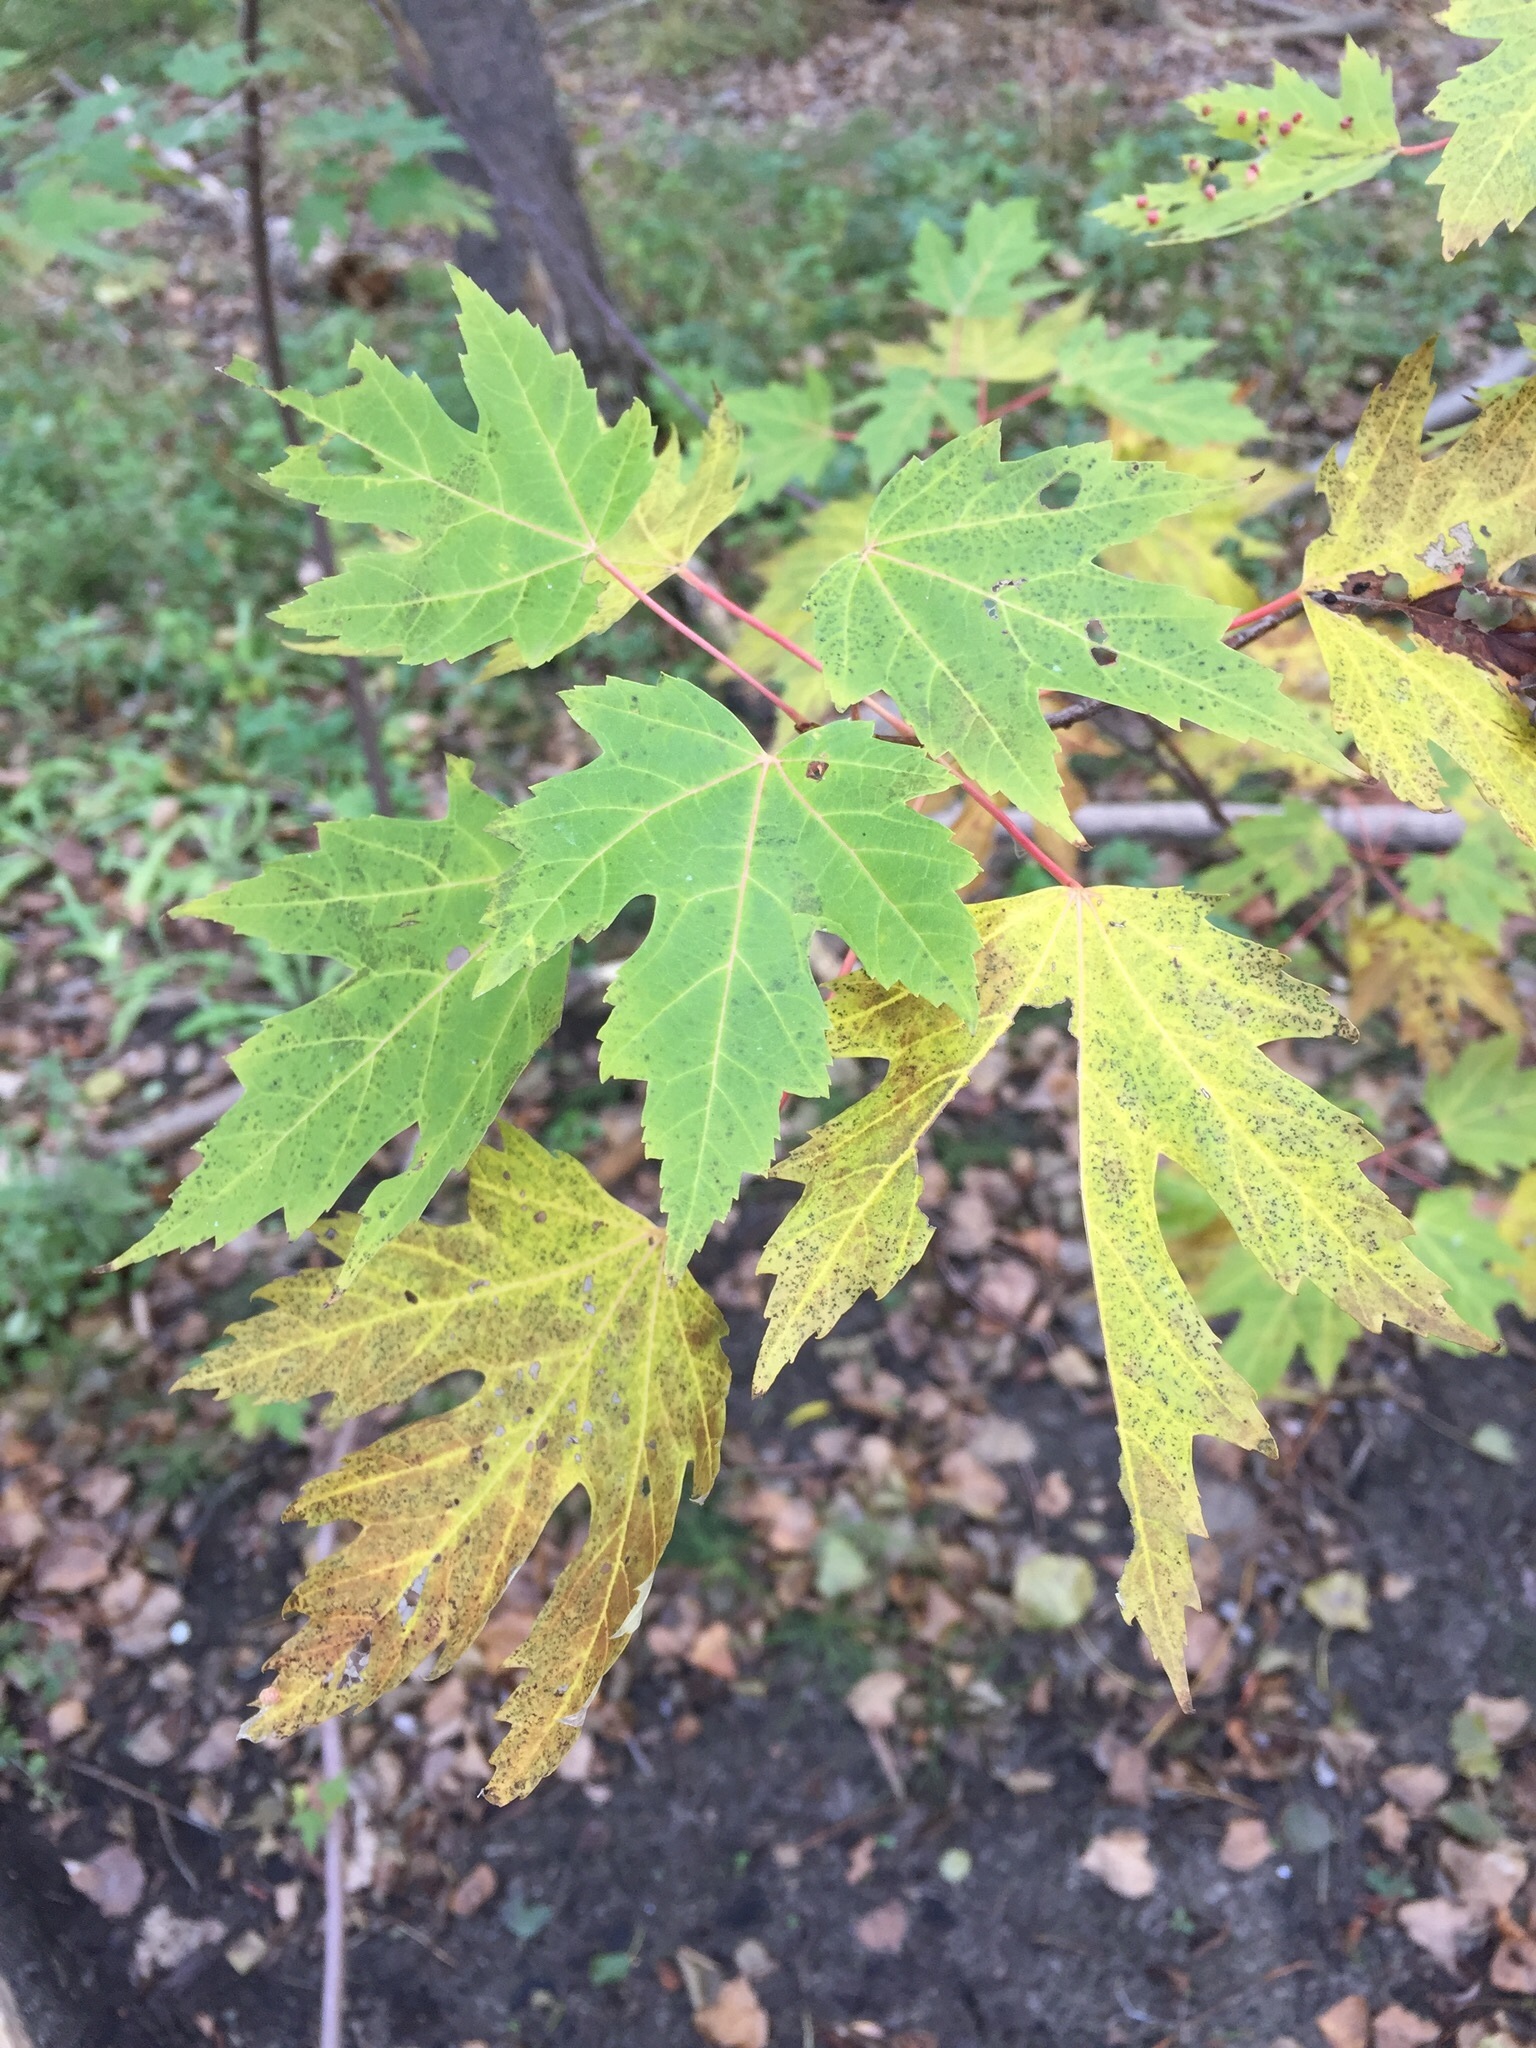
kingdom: Plantae
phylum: Tracheophyta
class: Magnoliopsida
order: Sapindales
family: Sapindaceae
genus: Acer
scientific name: Acer saccharinum
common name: Silver maple
